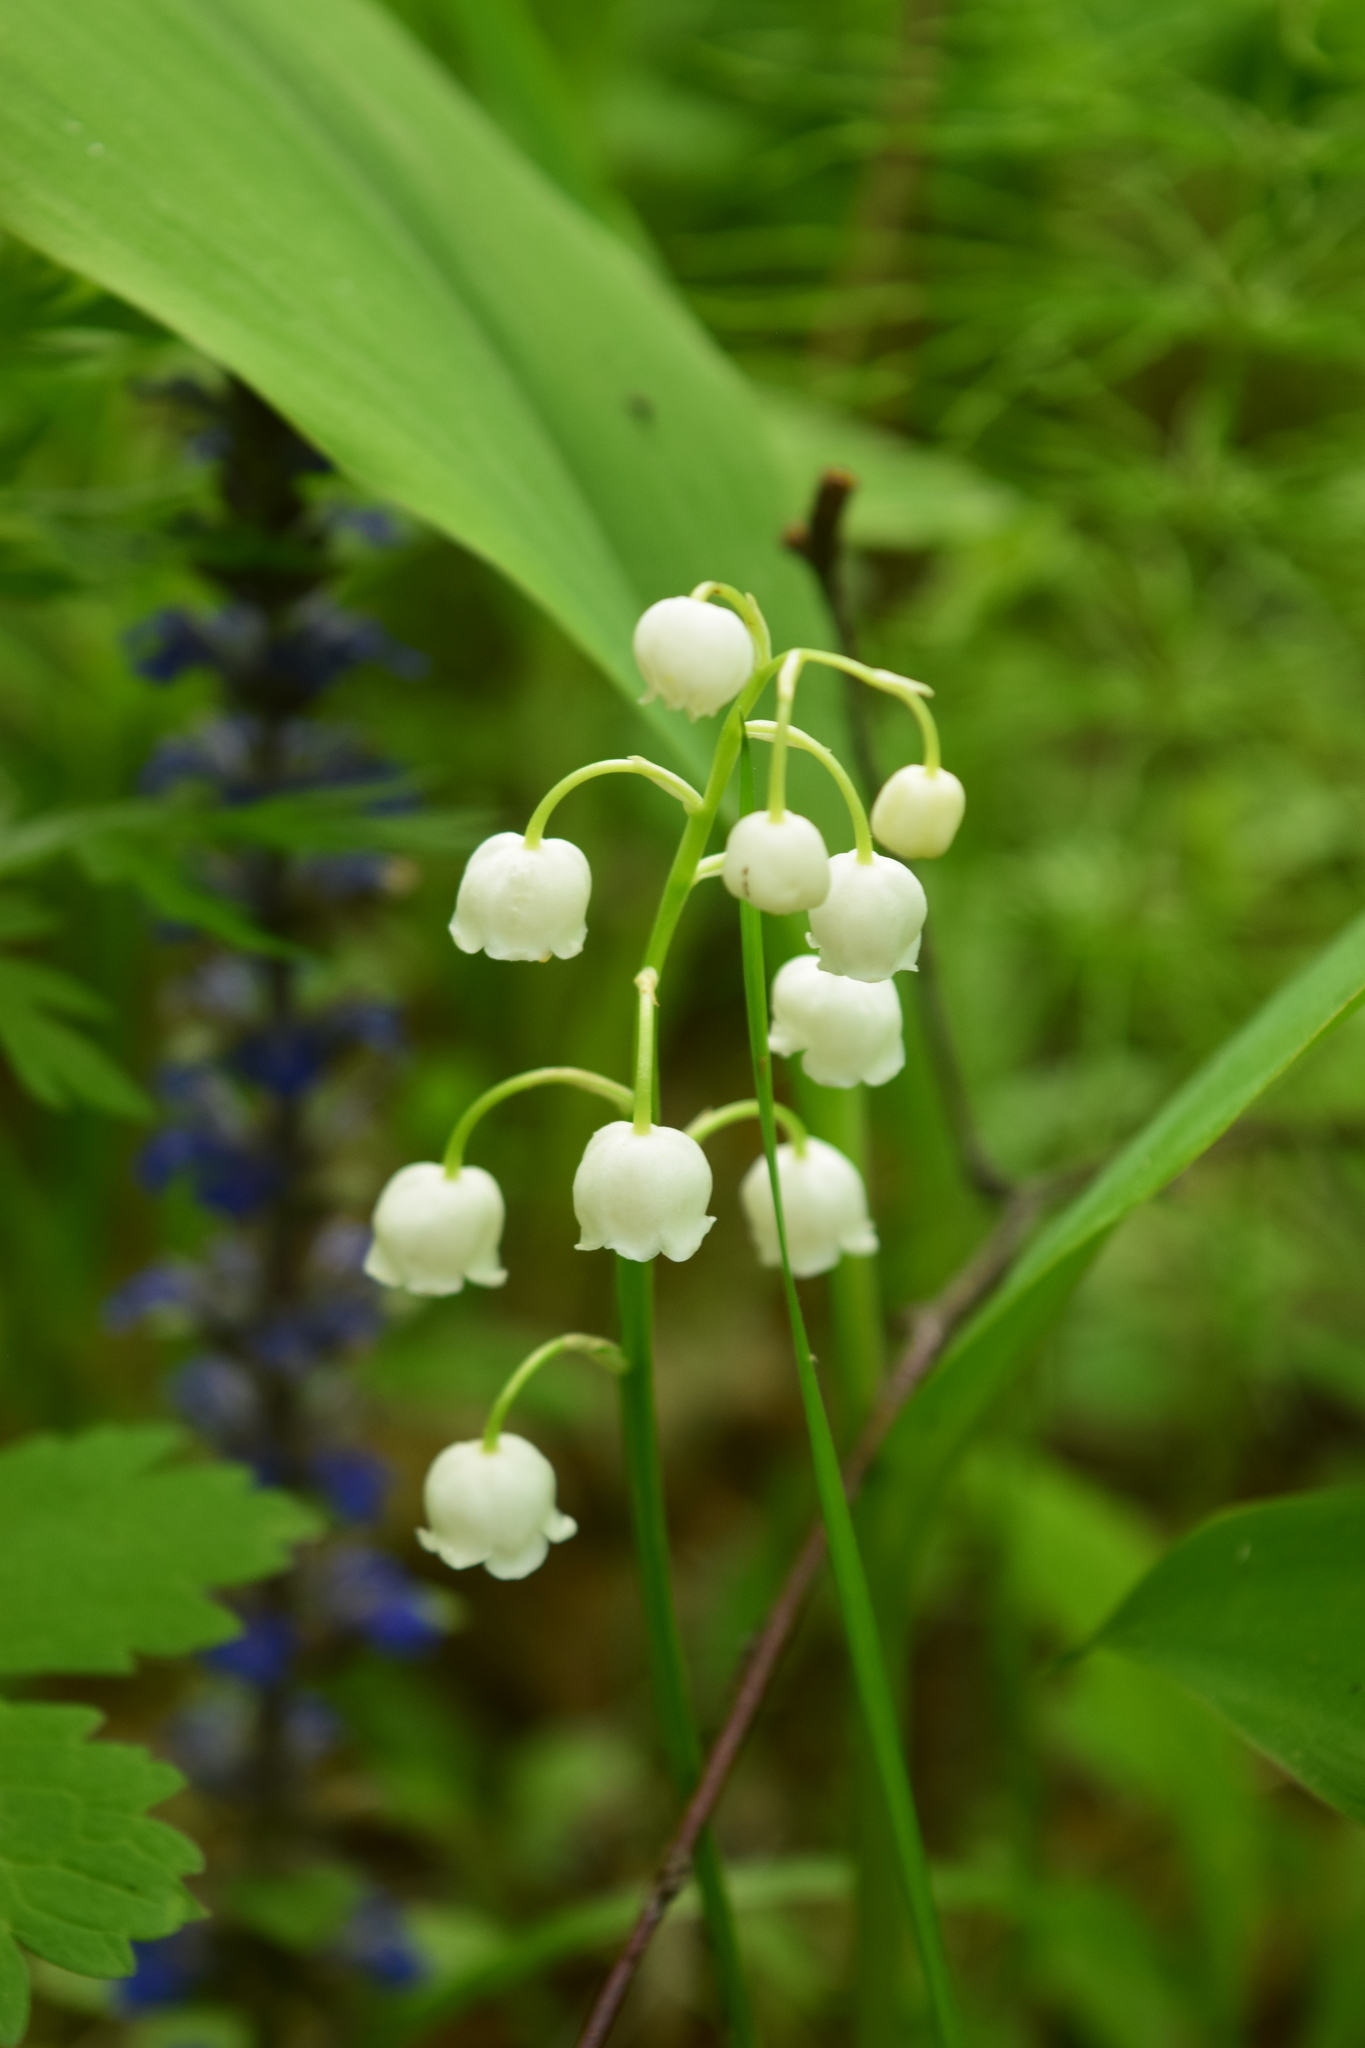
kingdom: Plantae
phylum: Tracheophyta
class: Liliopsida
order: Asparagales
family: Asparagaceae
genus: Convallaria
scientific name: Convallaria majalis
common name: Lily-of-the-valley
